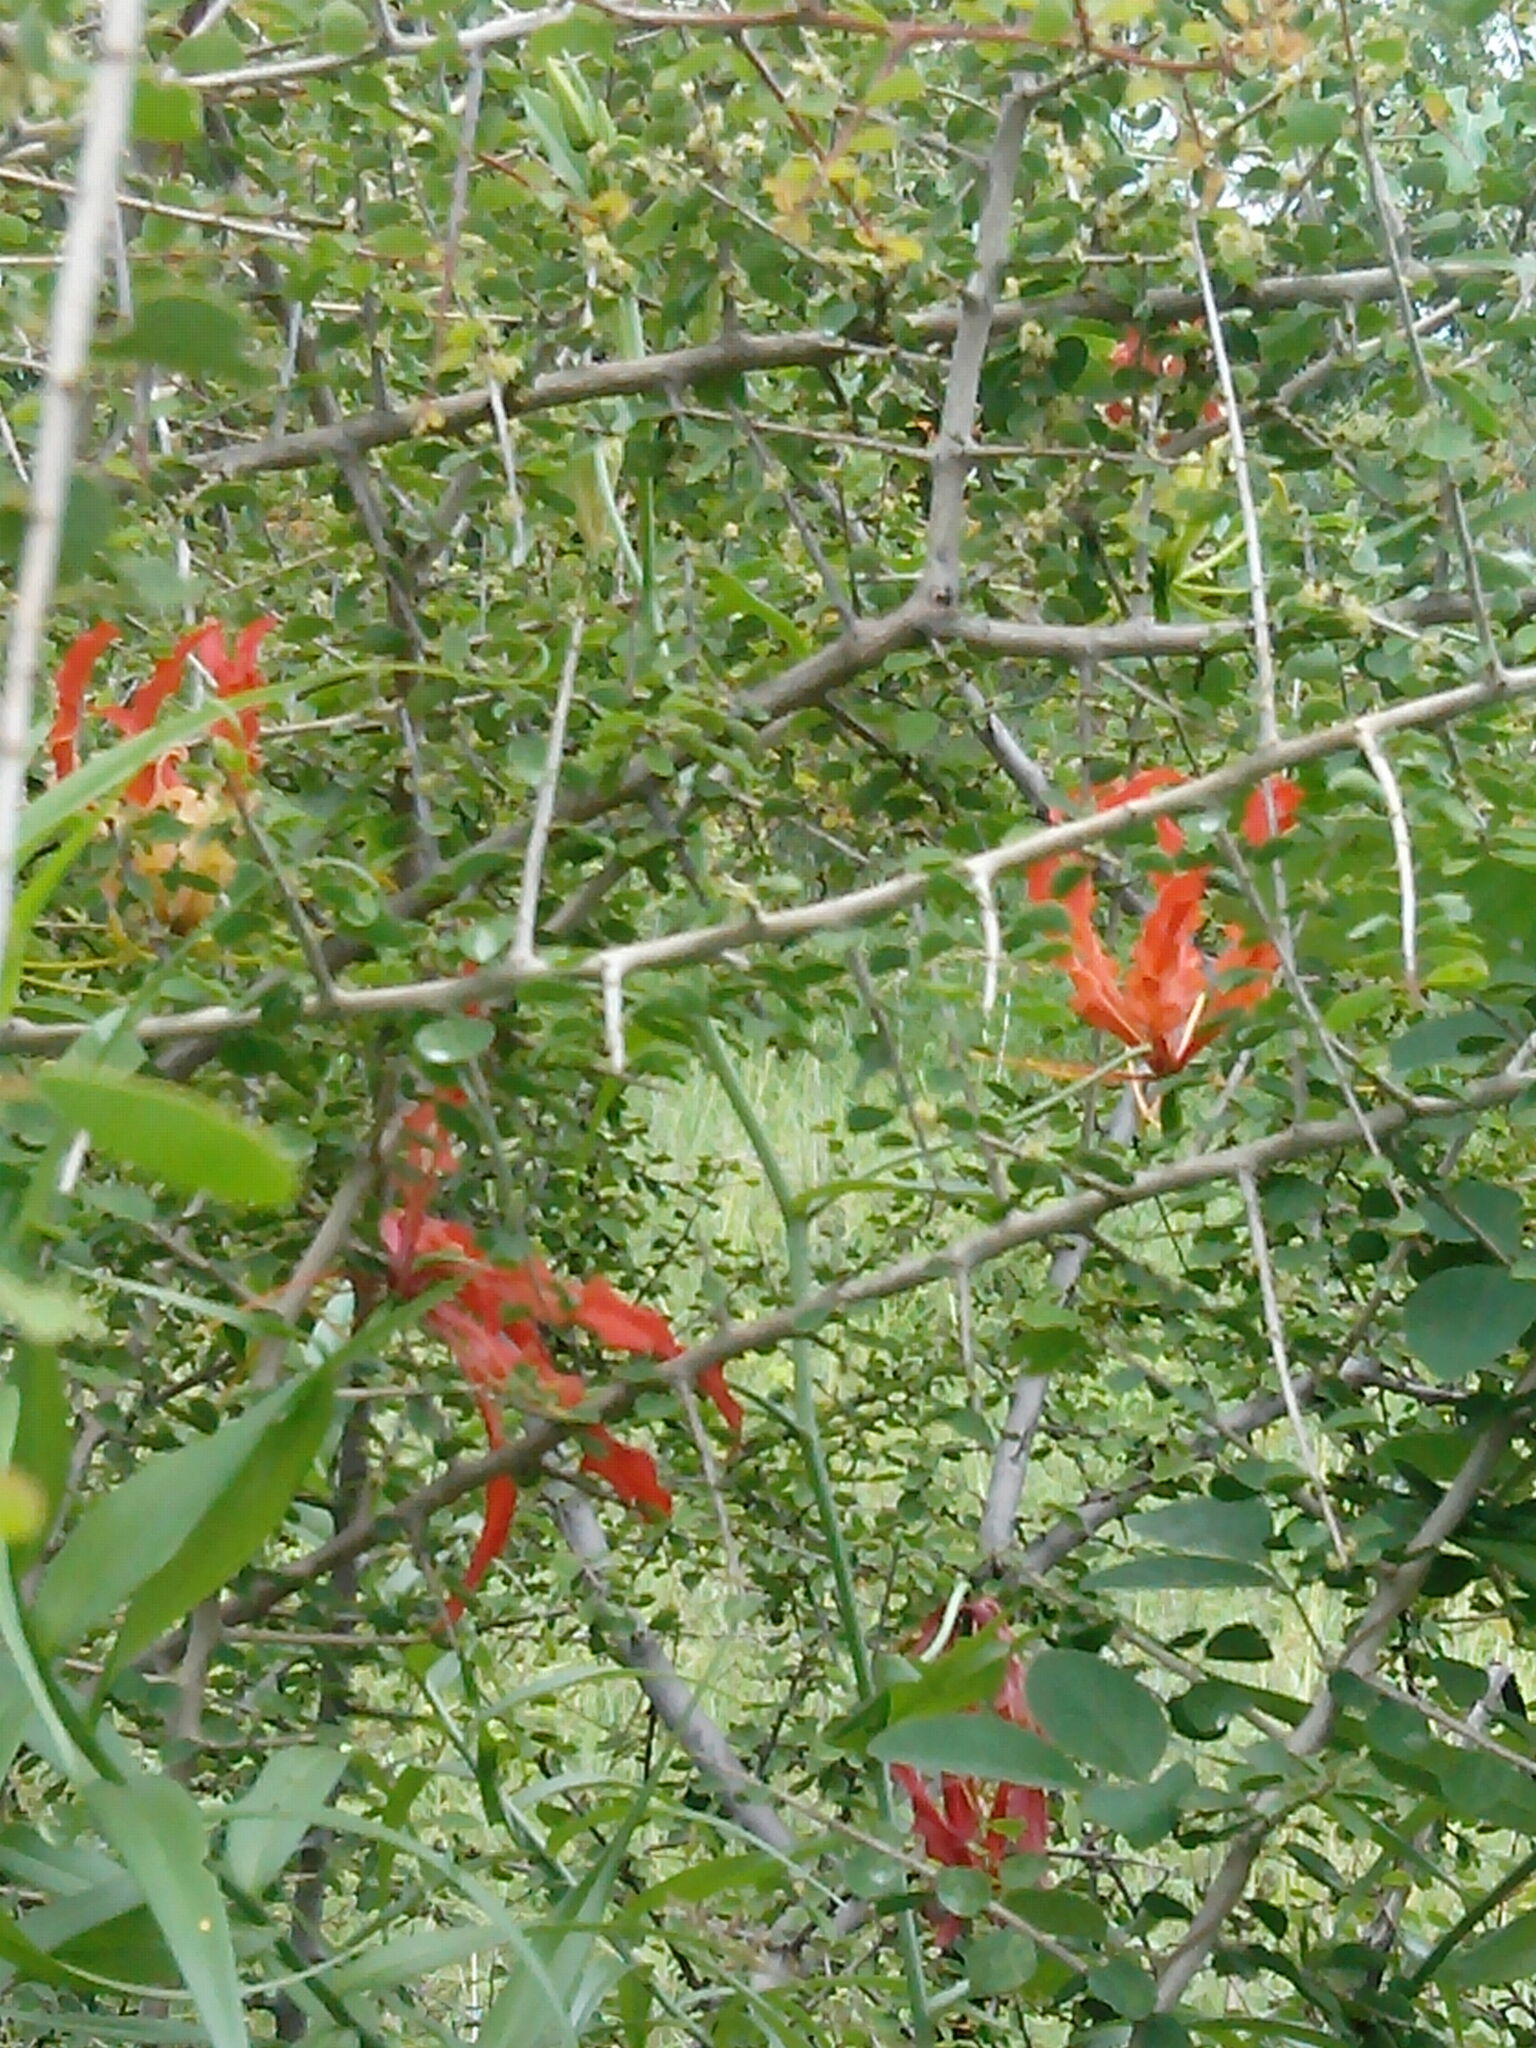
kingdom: Plantae
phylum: Tracheophyta
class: Liliopsida
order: Liliales
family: Colchicaceae
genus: Gloriosa
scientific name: Gloriosa superba
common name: Flame lily
